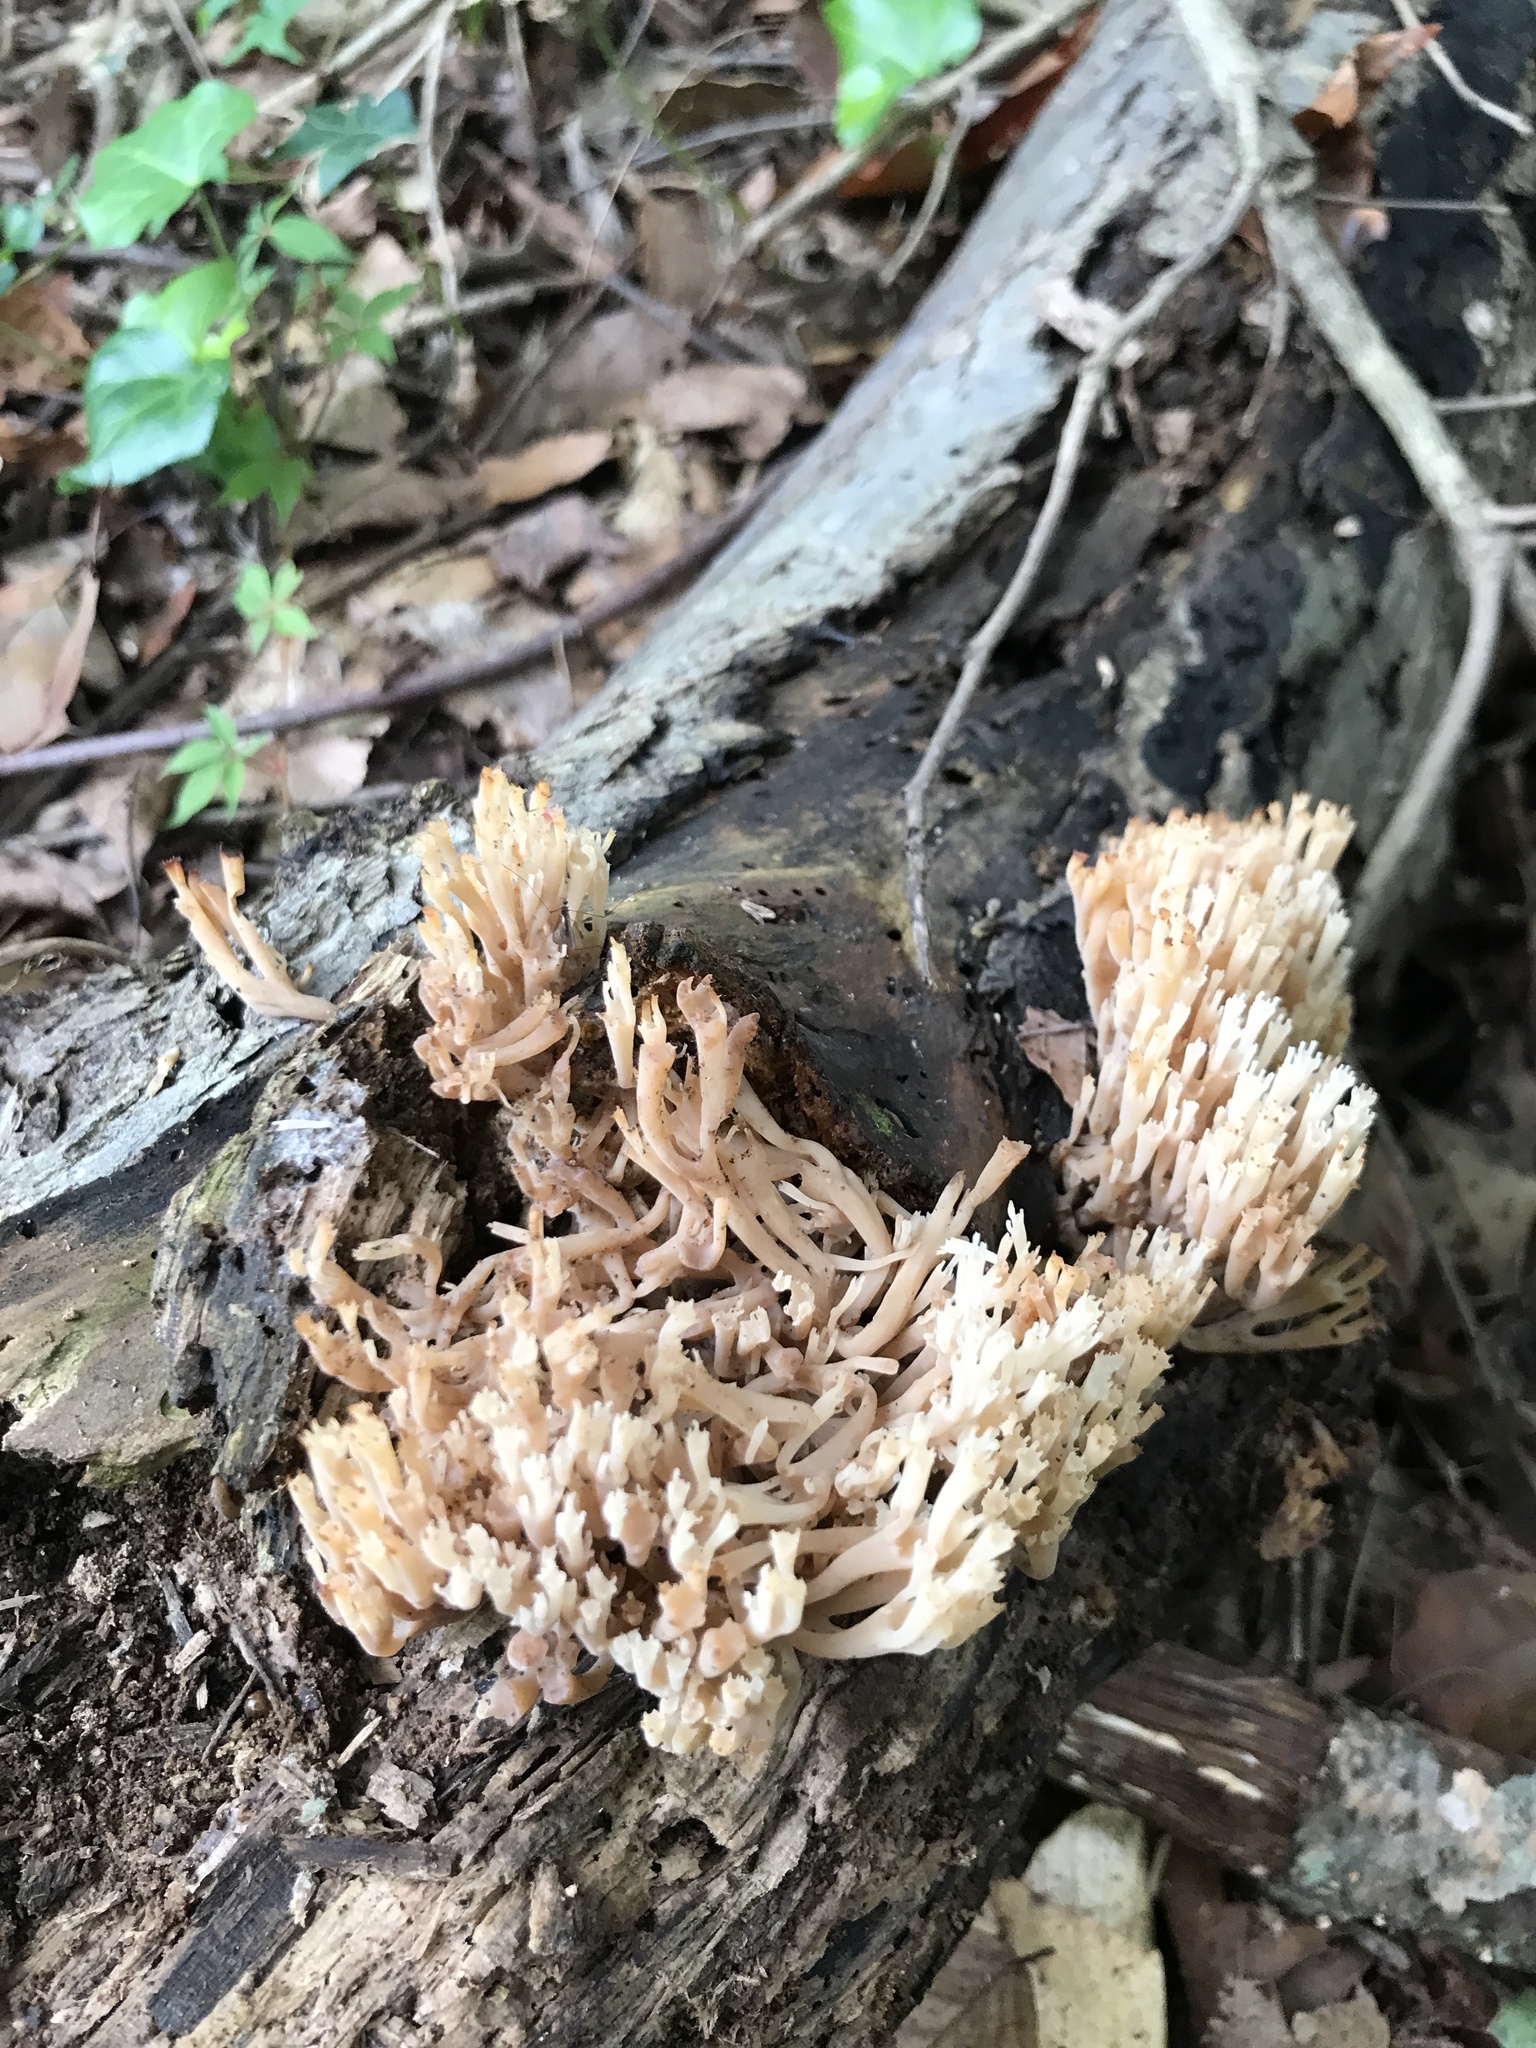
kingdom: Fungi
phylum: Basidiomycota
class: Agaricomycetes
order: Russulales
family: Auriscalpiaceae
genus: Artomyces
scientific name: Artomyces pyxidatus
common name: Crown-tipped coral fungus
